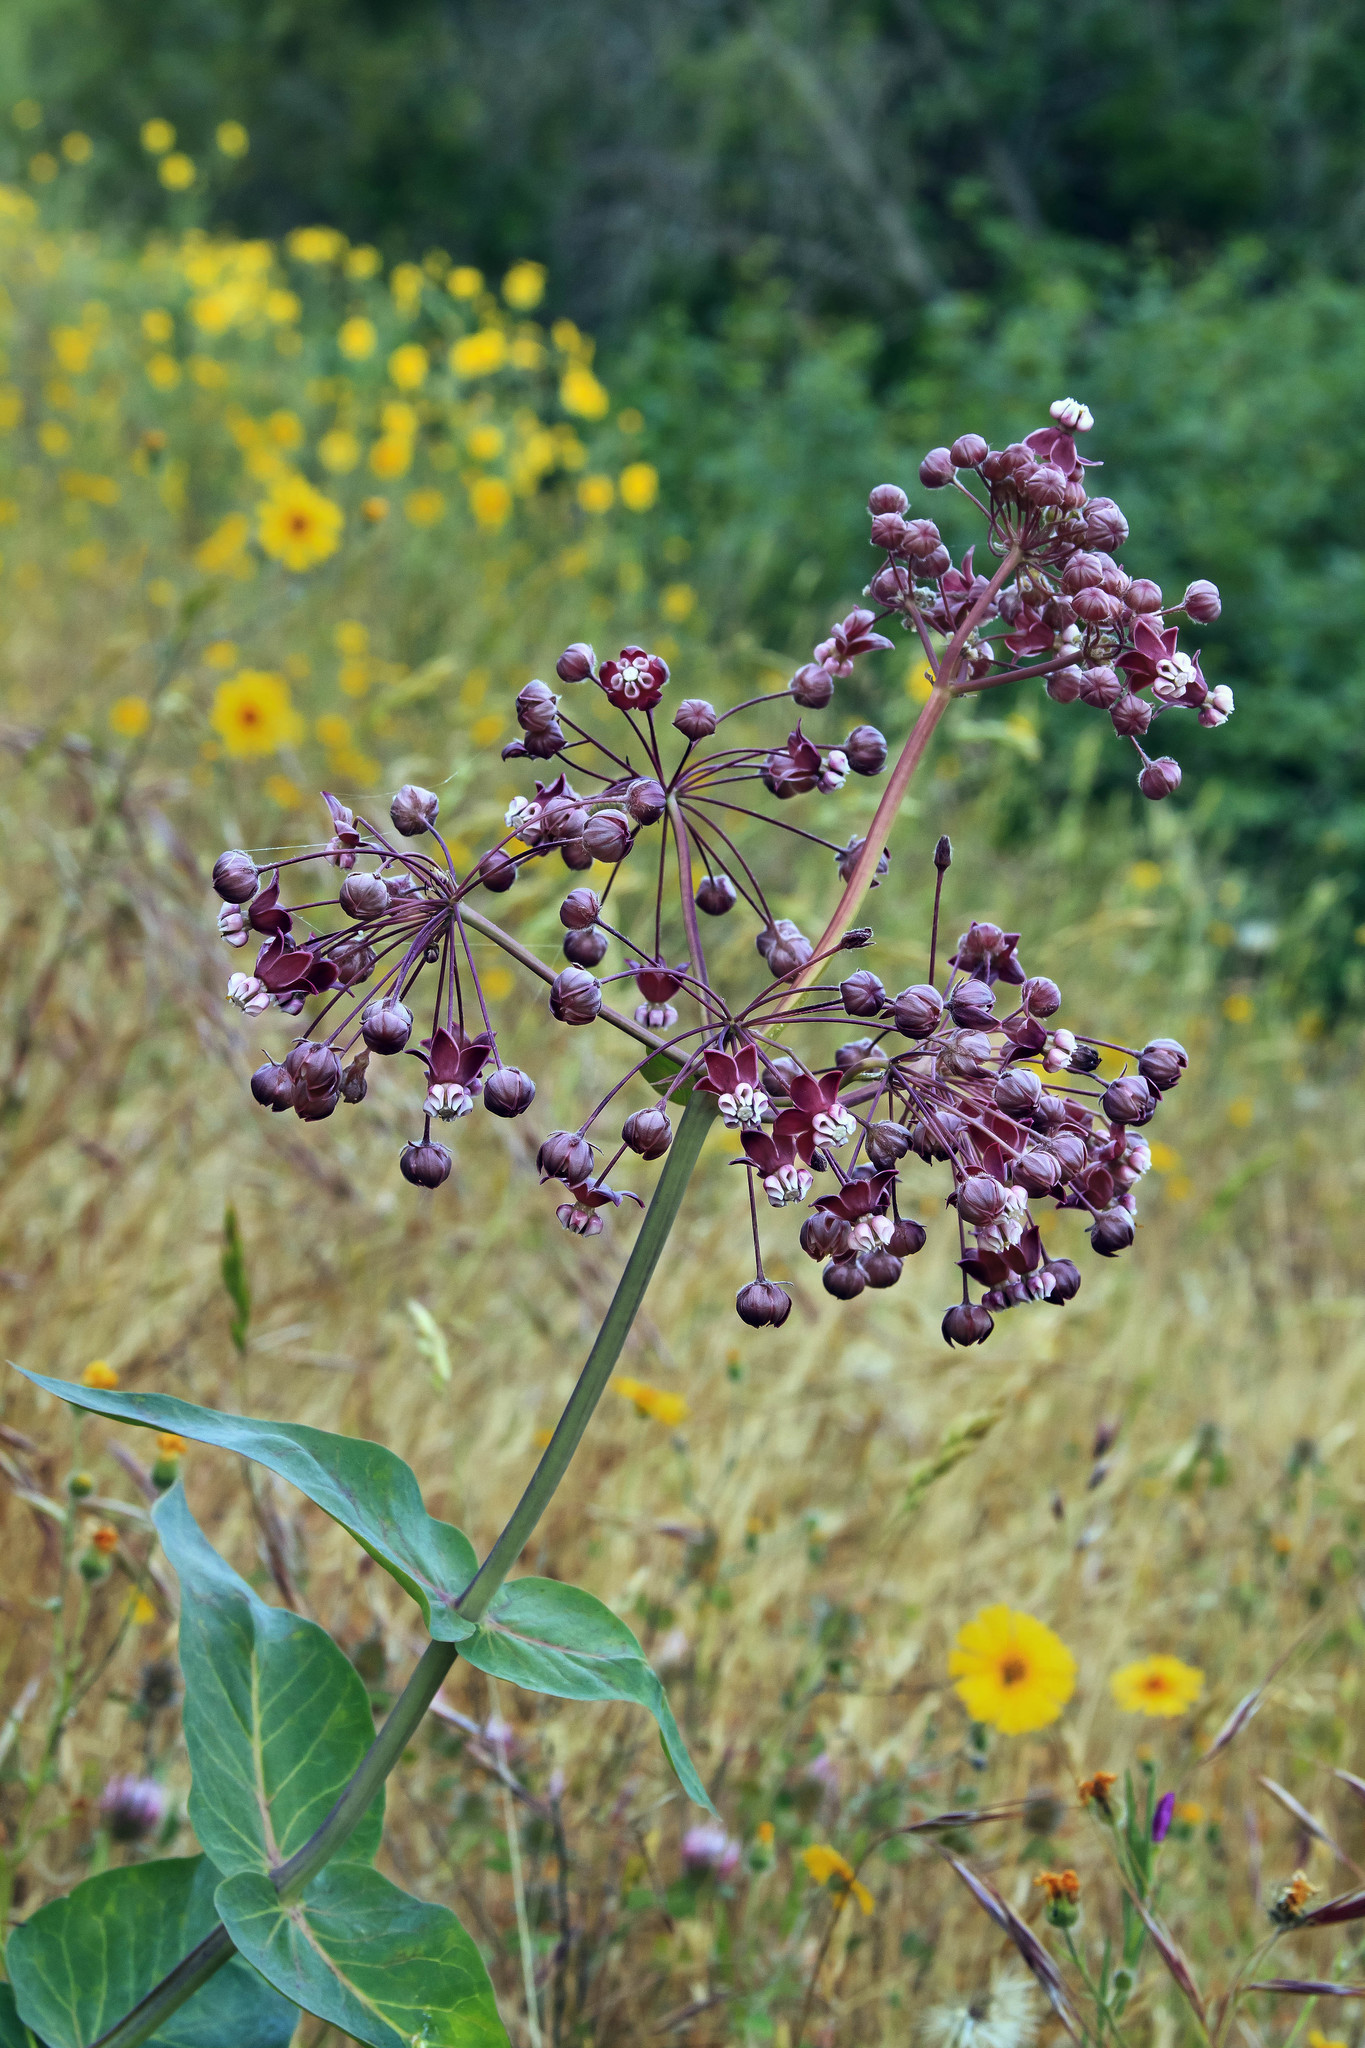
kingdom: Plantae
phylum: Tracheophyta
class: Magnoliopsida
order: Gentianales
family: Apocynaceae
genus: Asclepias
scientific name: Asclepias cordifolia
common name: Purple milkweed
